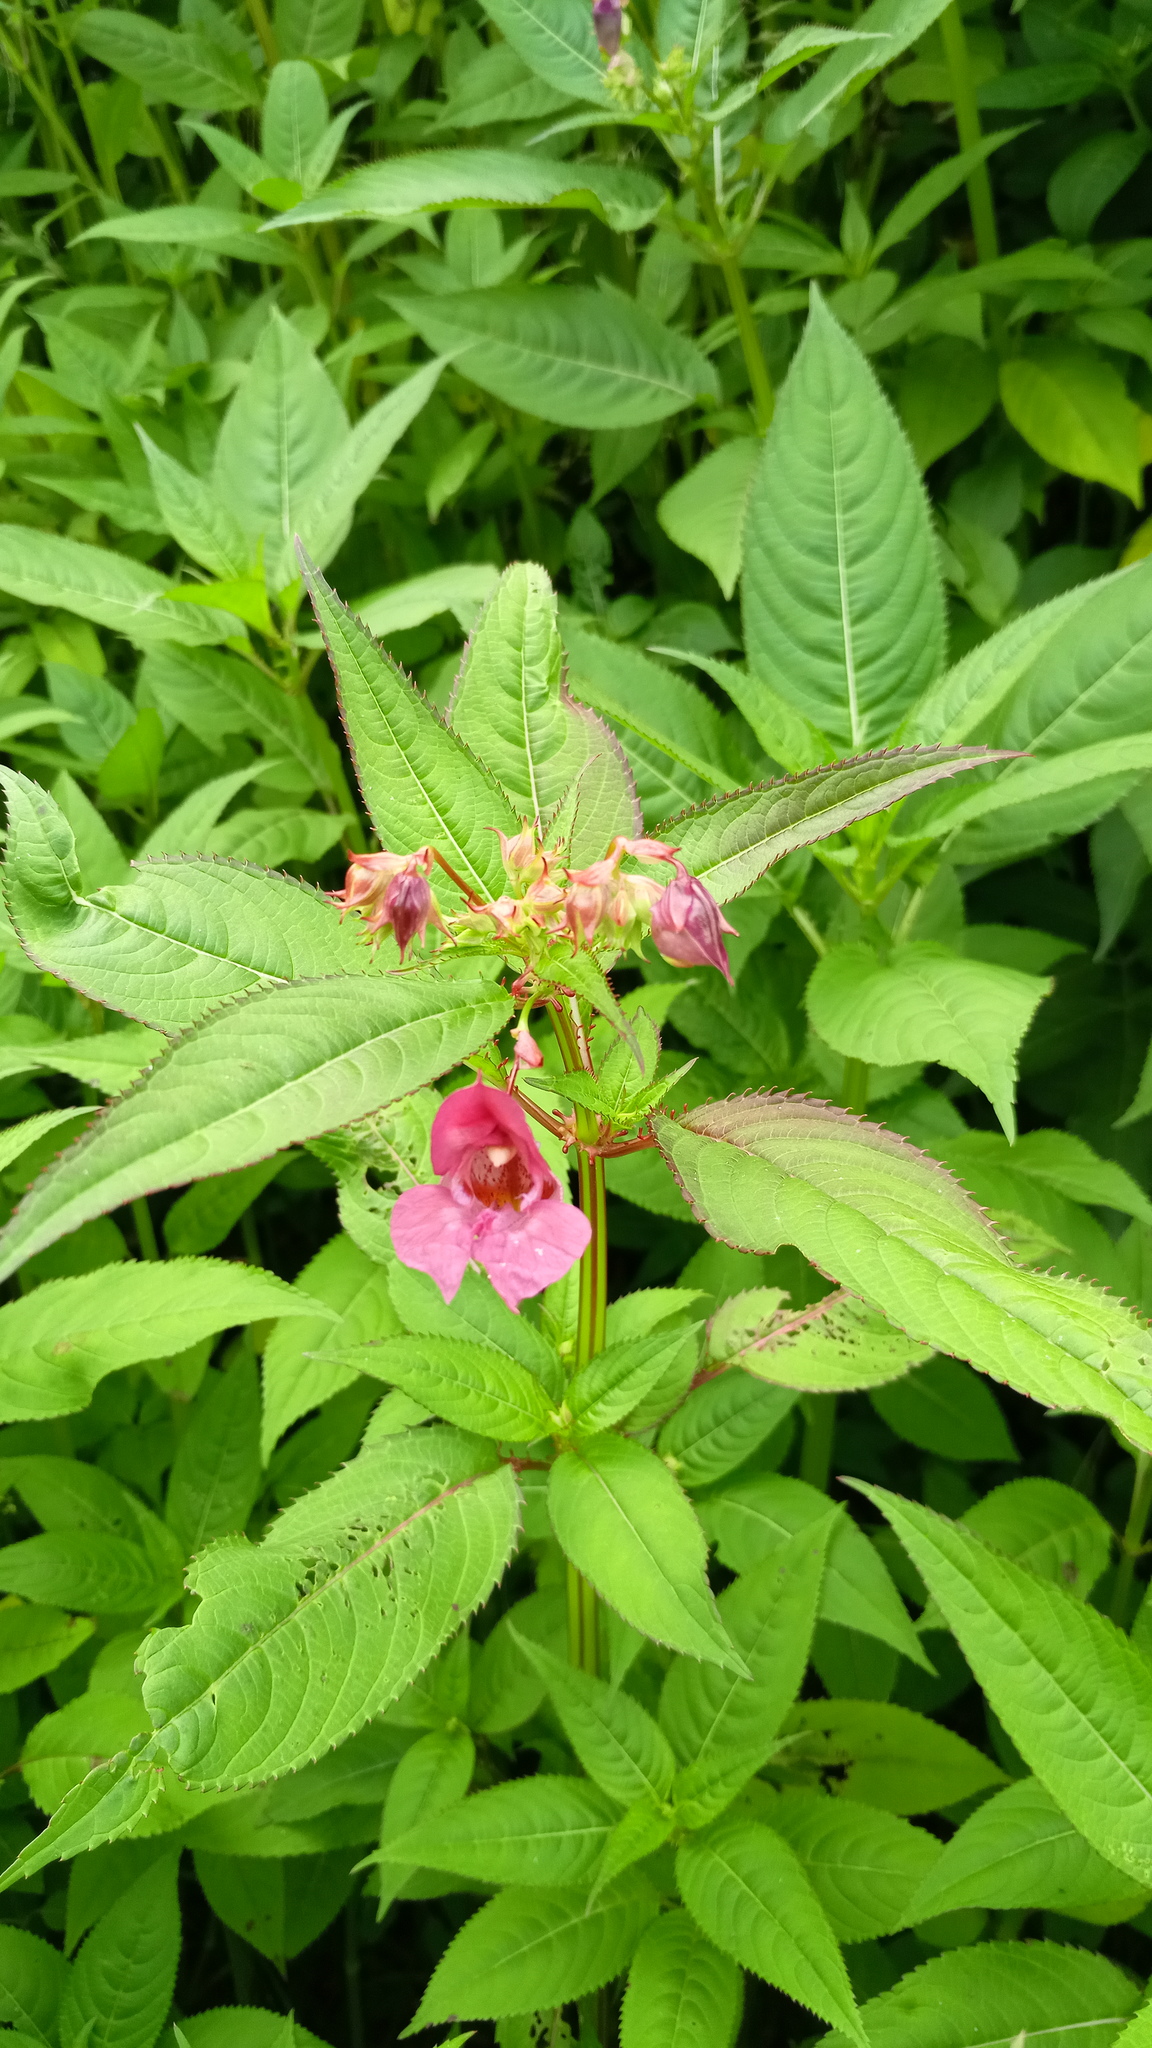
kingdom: Plantae
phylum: Tracheophyta
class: Magnoliopsida
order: Ericales
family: Balsaminaceae
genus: Impatiens
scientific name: Impatiens glandulifera
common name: Himalayan balsam
